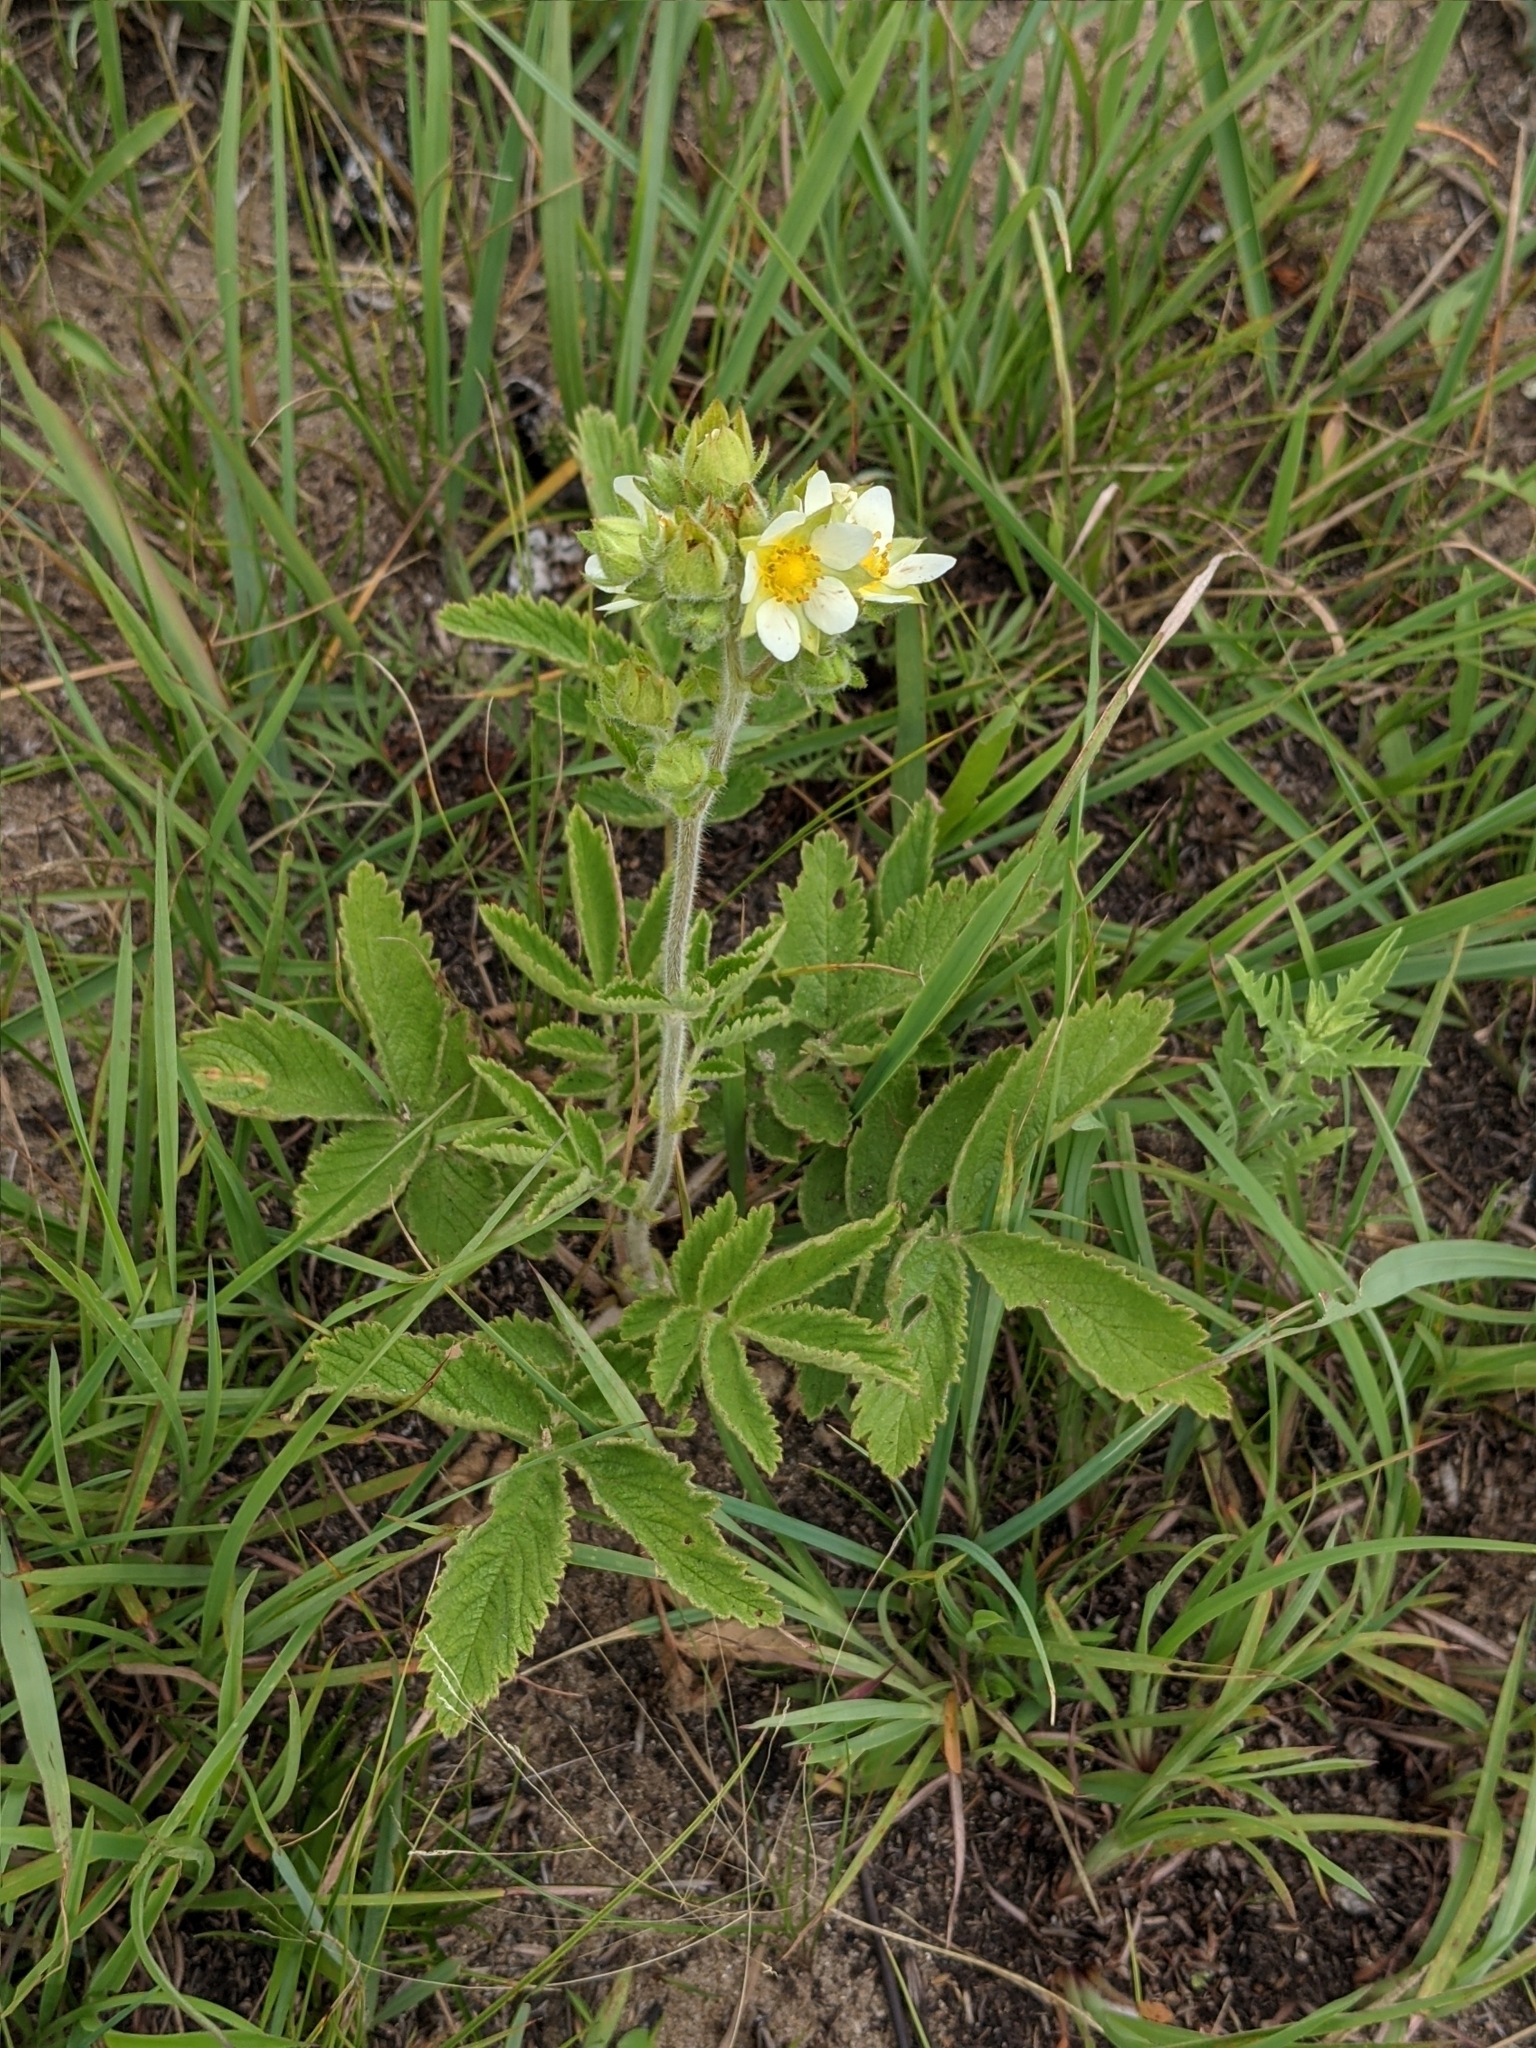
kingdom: Plantae
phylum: Tracheophyta
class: Magnoliopsida
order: Rosales
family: Rosaceae
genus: Drymocallis
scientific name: Drymocallis arguta
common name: Tall cinquefoil
